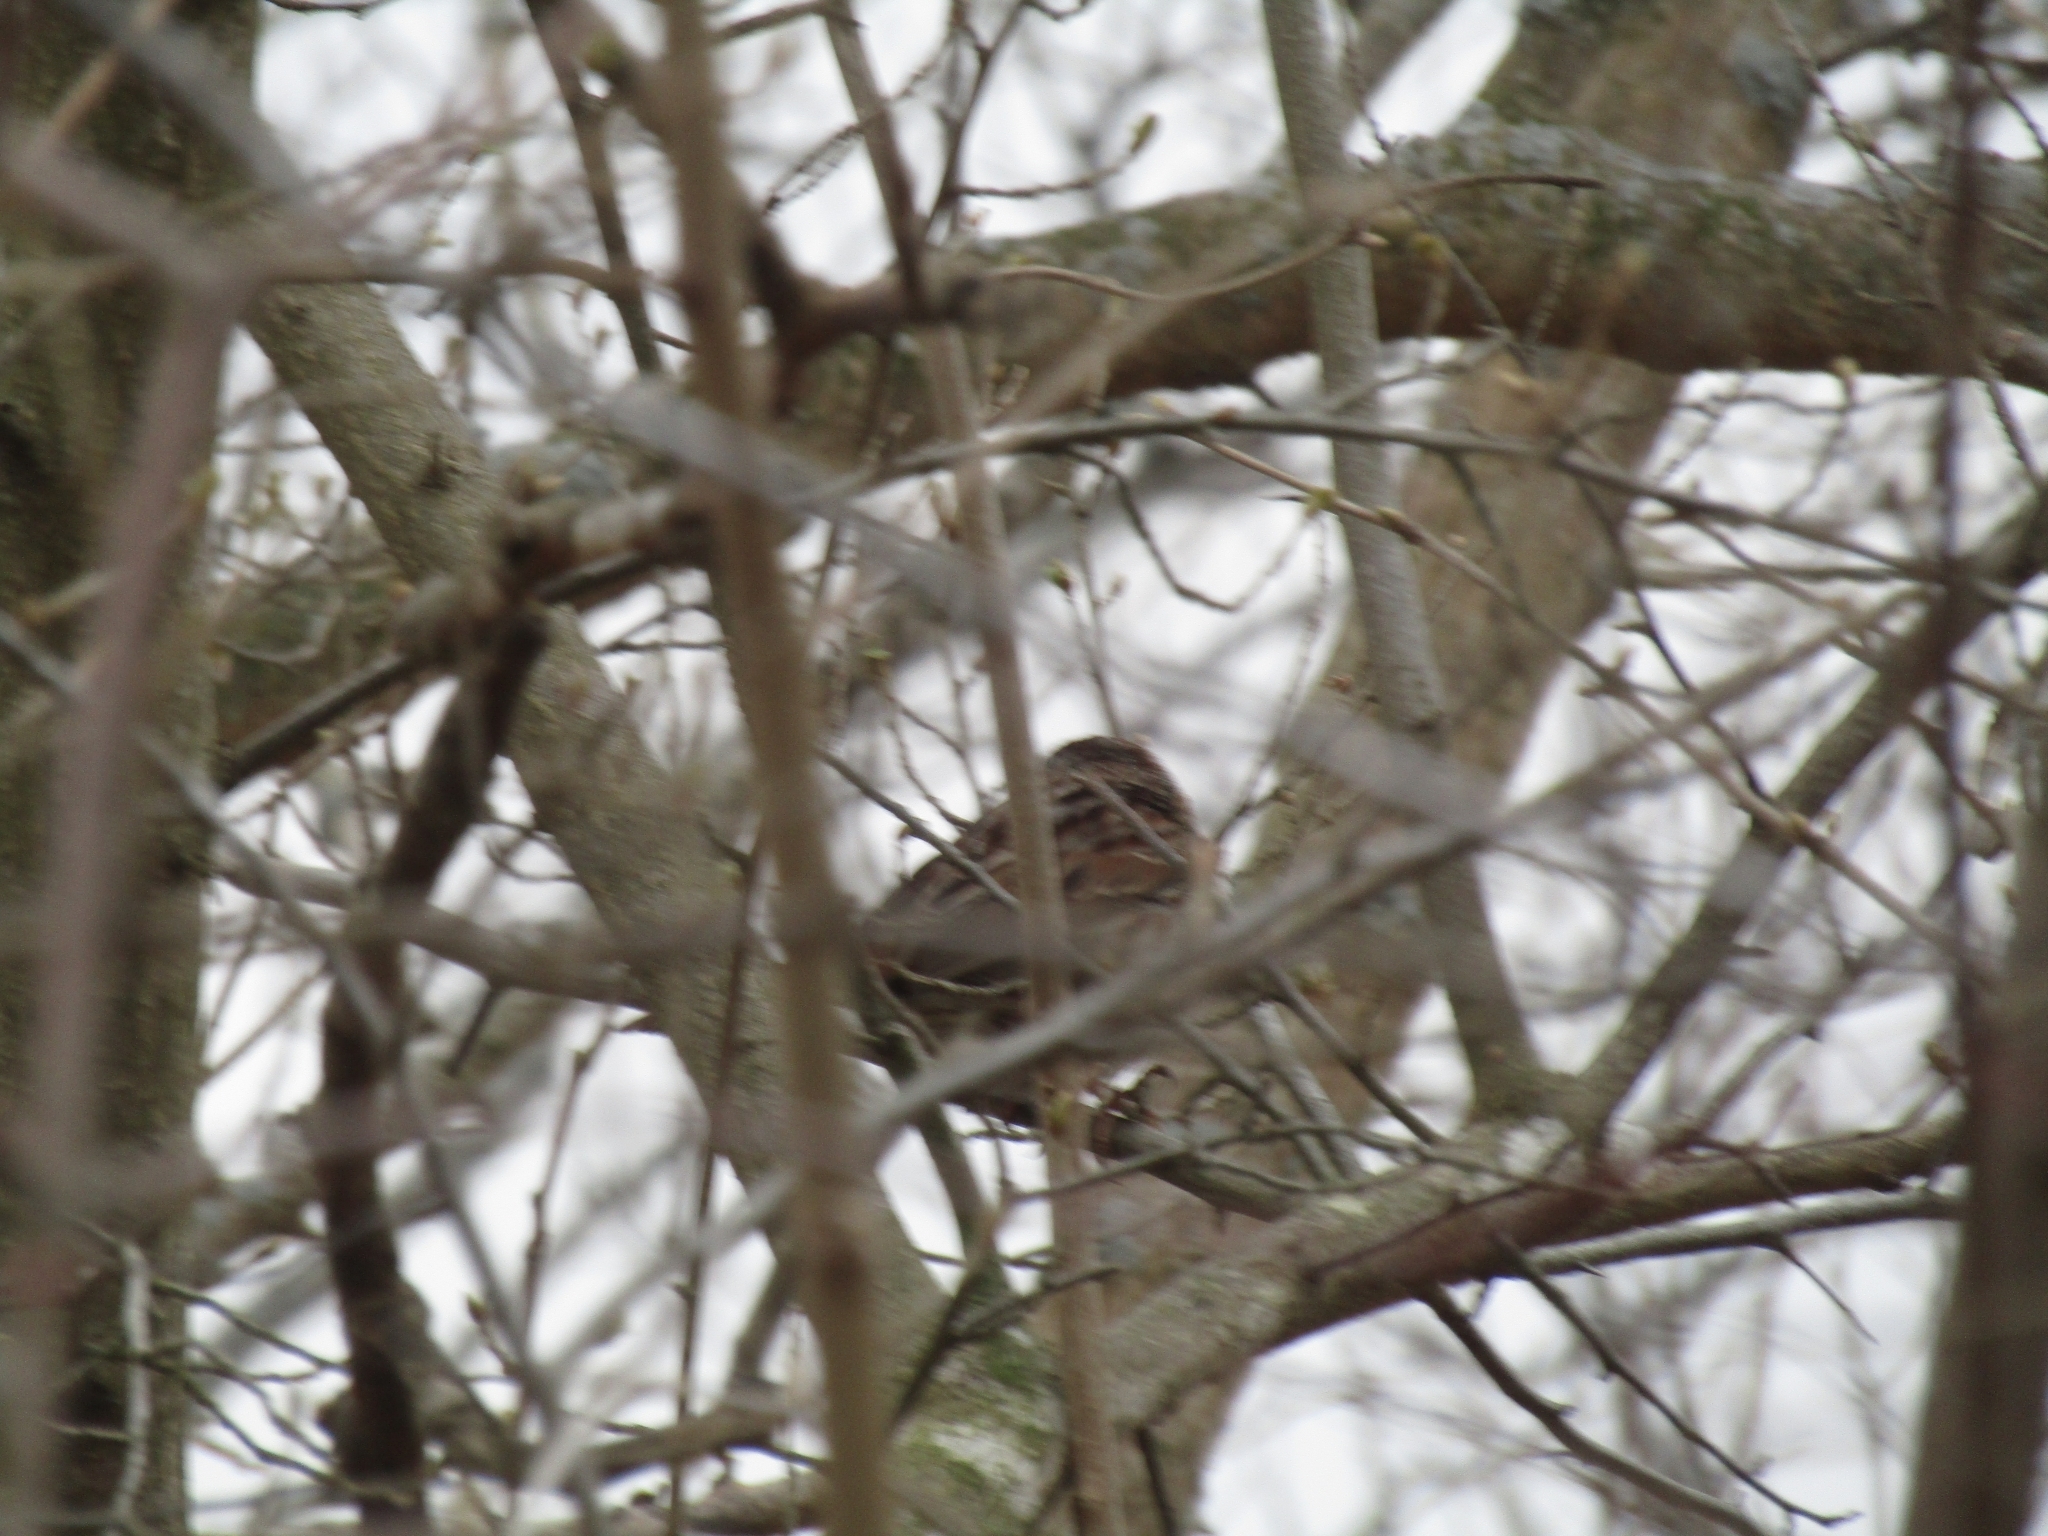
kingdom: Animalia
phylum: Chordata
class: Aves
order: Passeriformes
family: Passerellidae
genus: Melospiza
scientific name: Melospiza melodia
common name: Song sparrow
